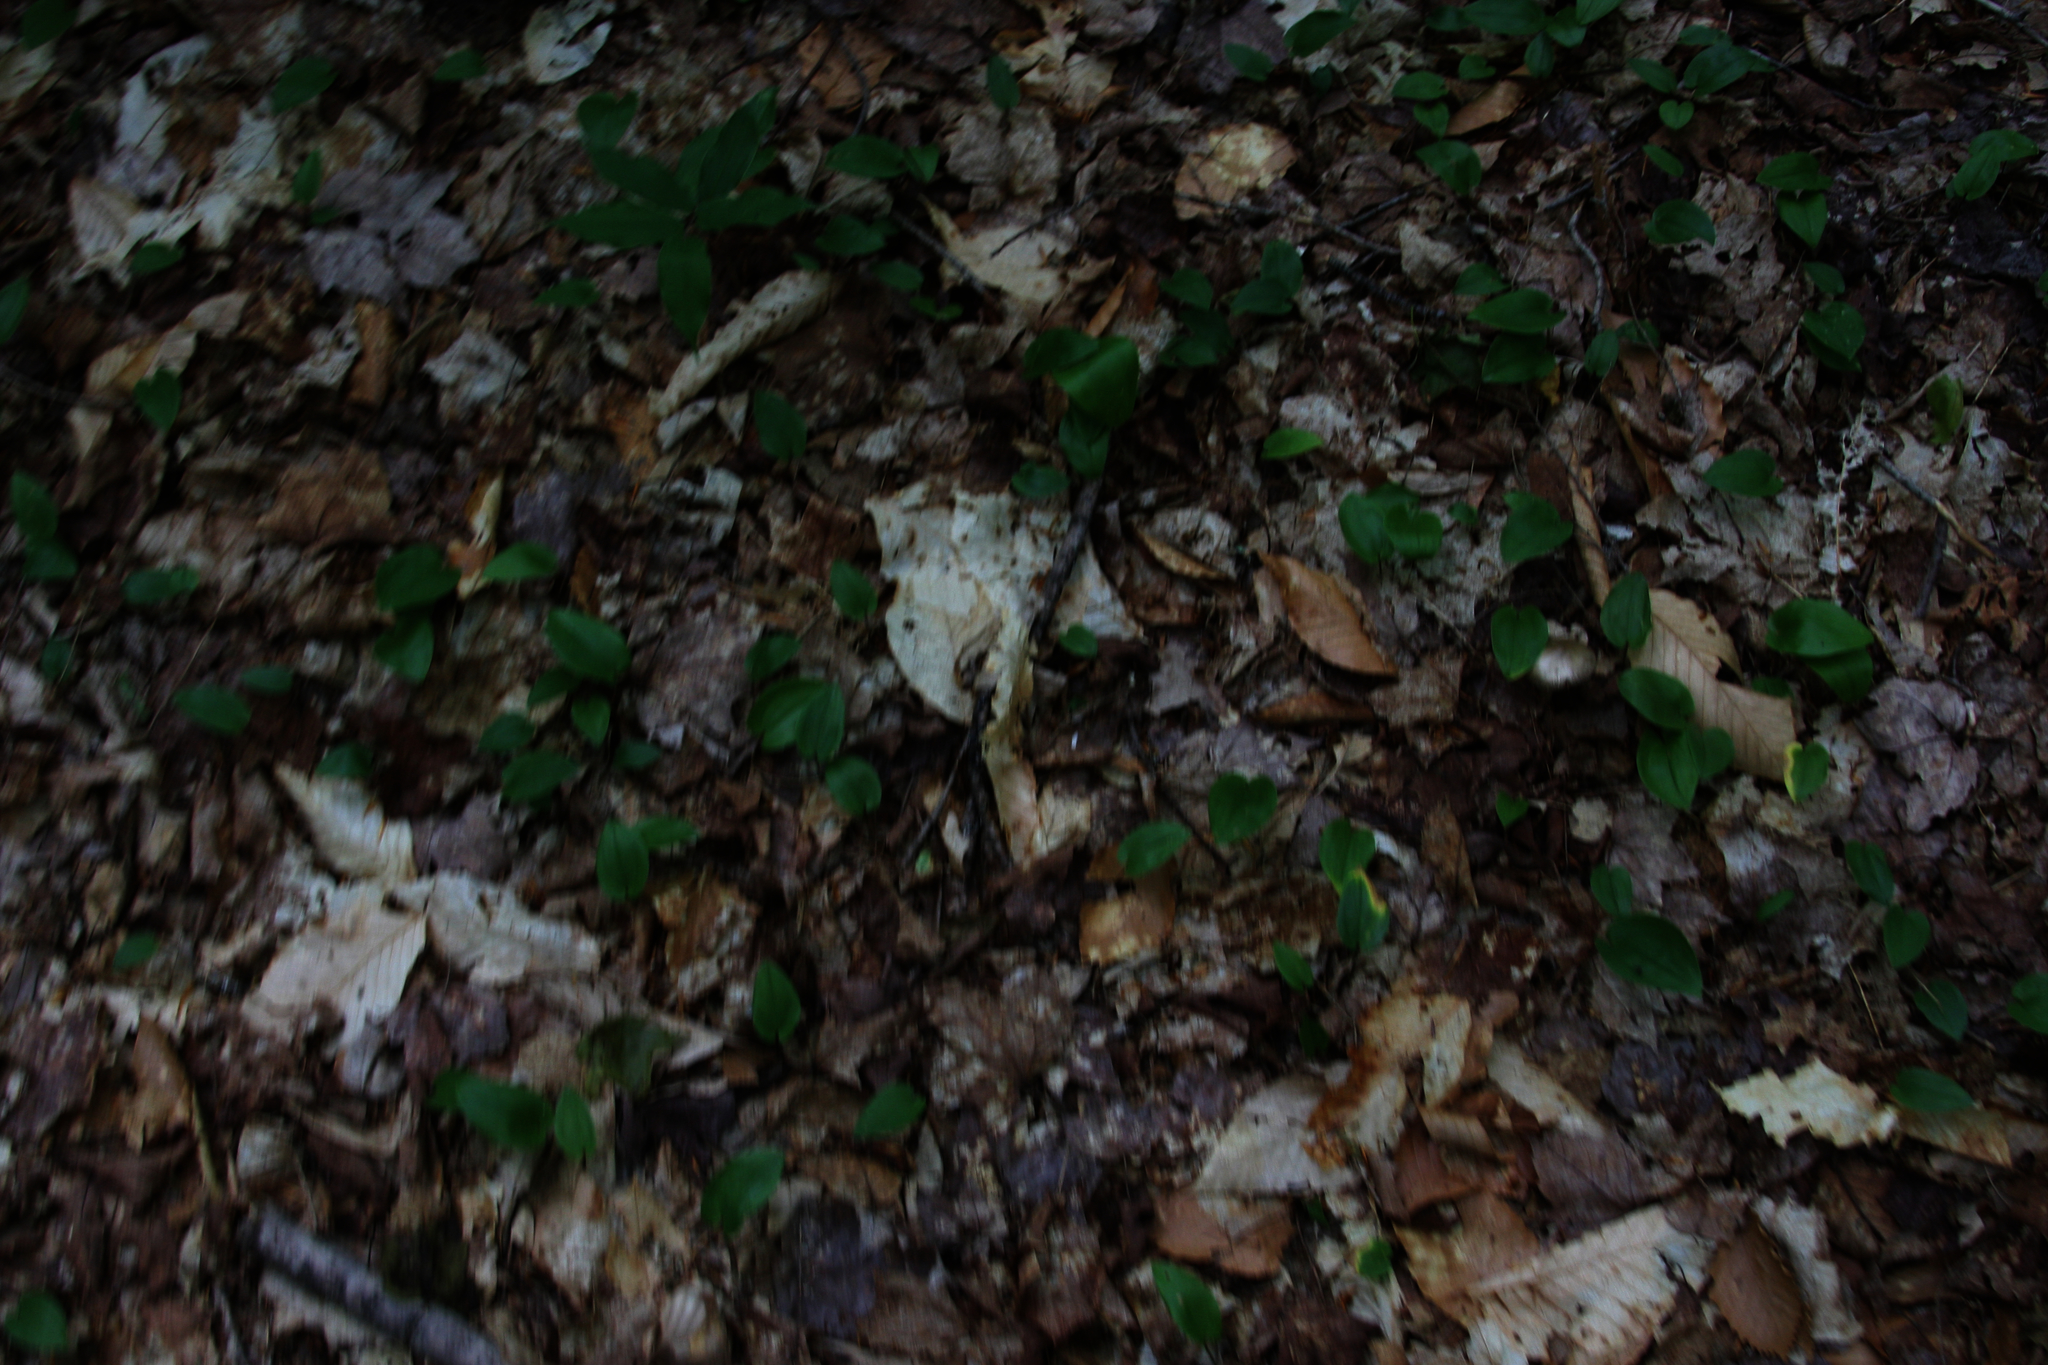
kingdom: Plantae
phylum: Tracheophyta
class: Liliopsida
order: Asparagales
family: Asparagaceae
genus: Maianthemum
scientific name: Maianthemum canadense
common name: False lily-of-the-valley
